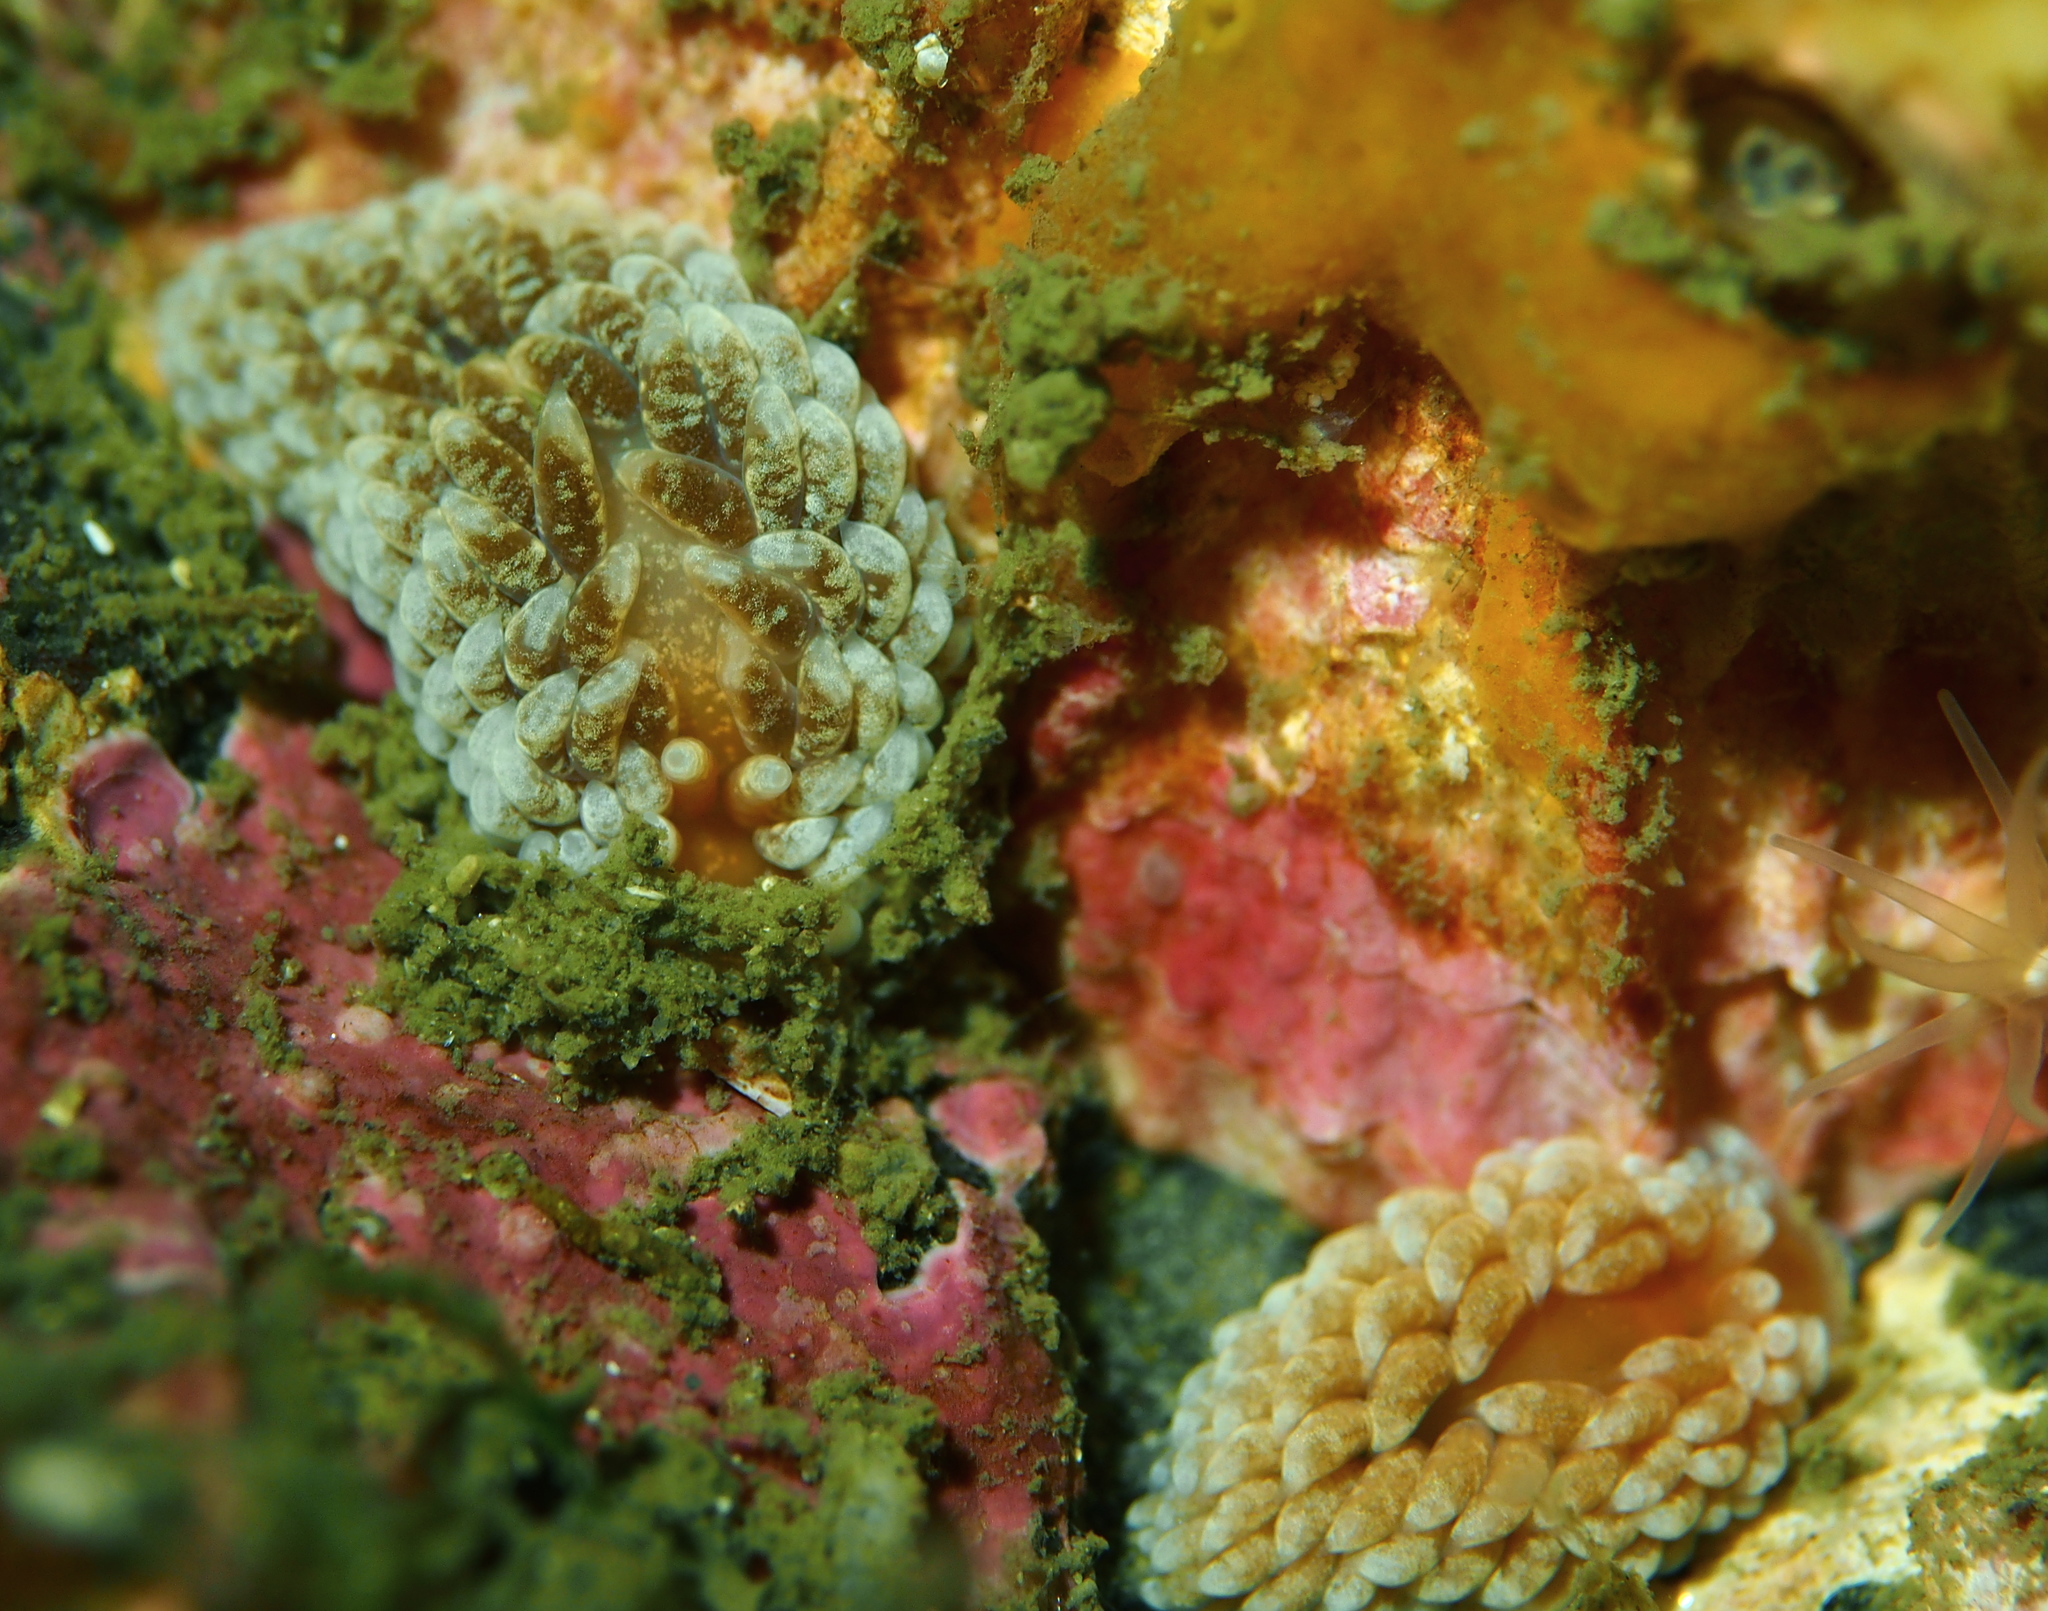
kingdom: Animalia
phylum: Mollusca
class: Gastropoda
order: Nudibranchia
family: Aeolidiidae
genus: Aeolidiella
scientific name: Aeolidiella glauca
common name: Orange-brown aeolid
